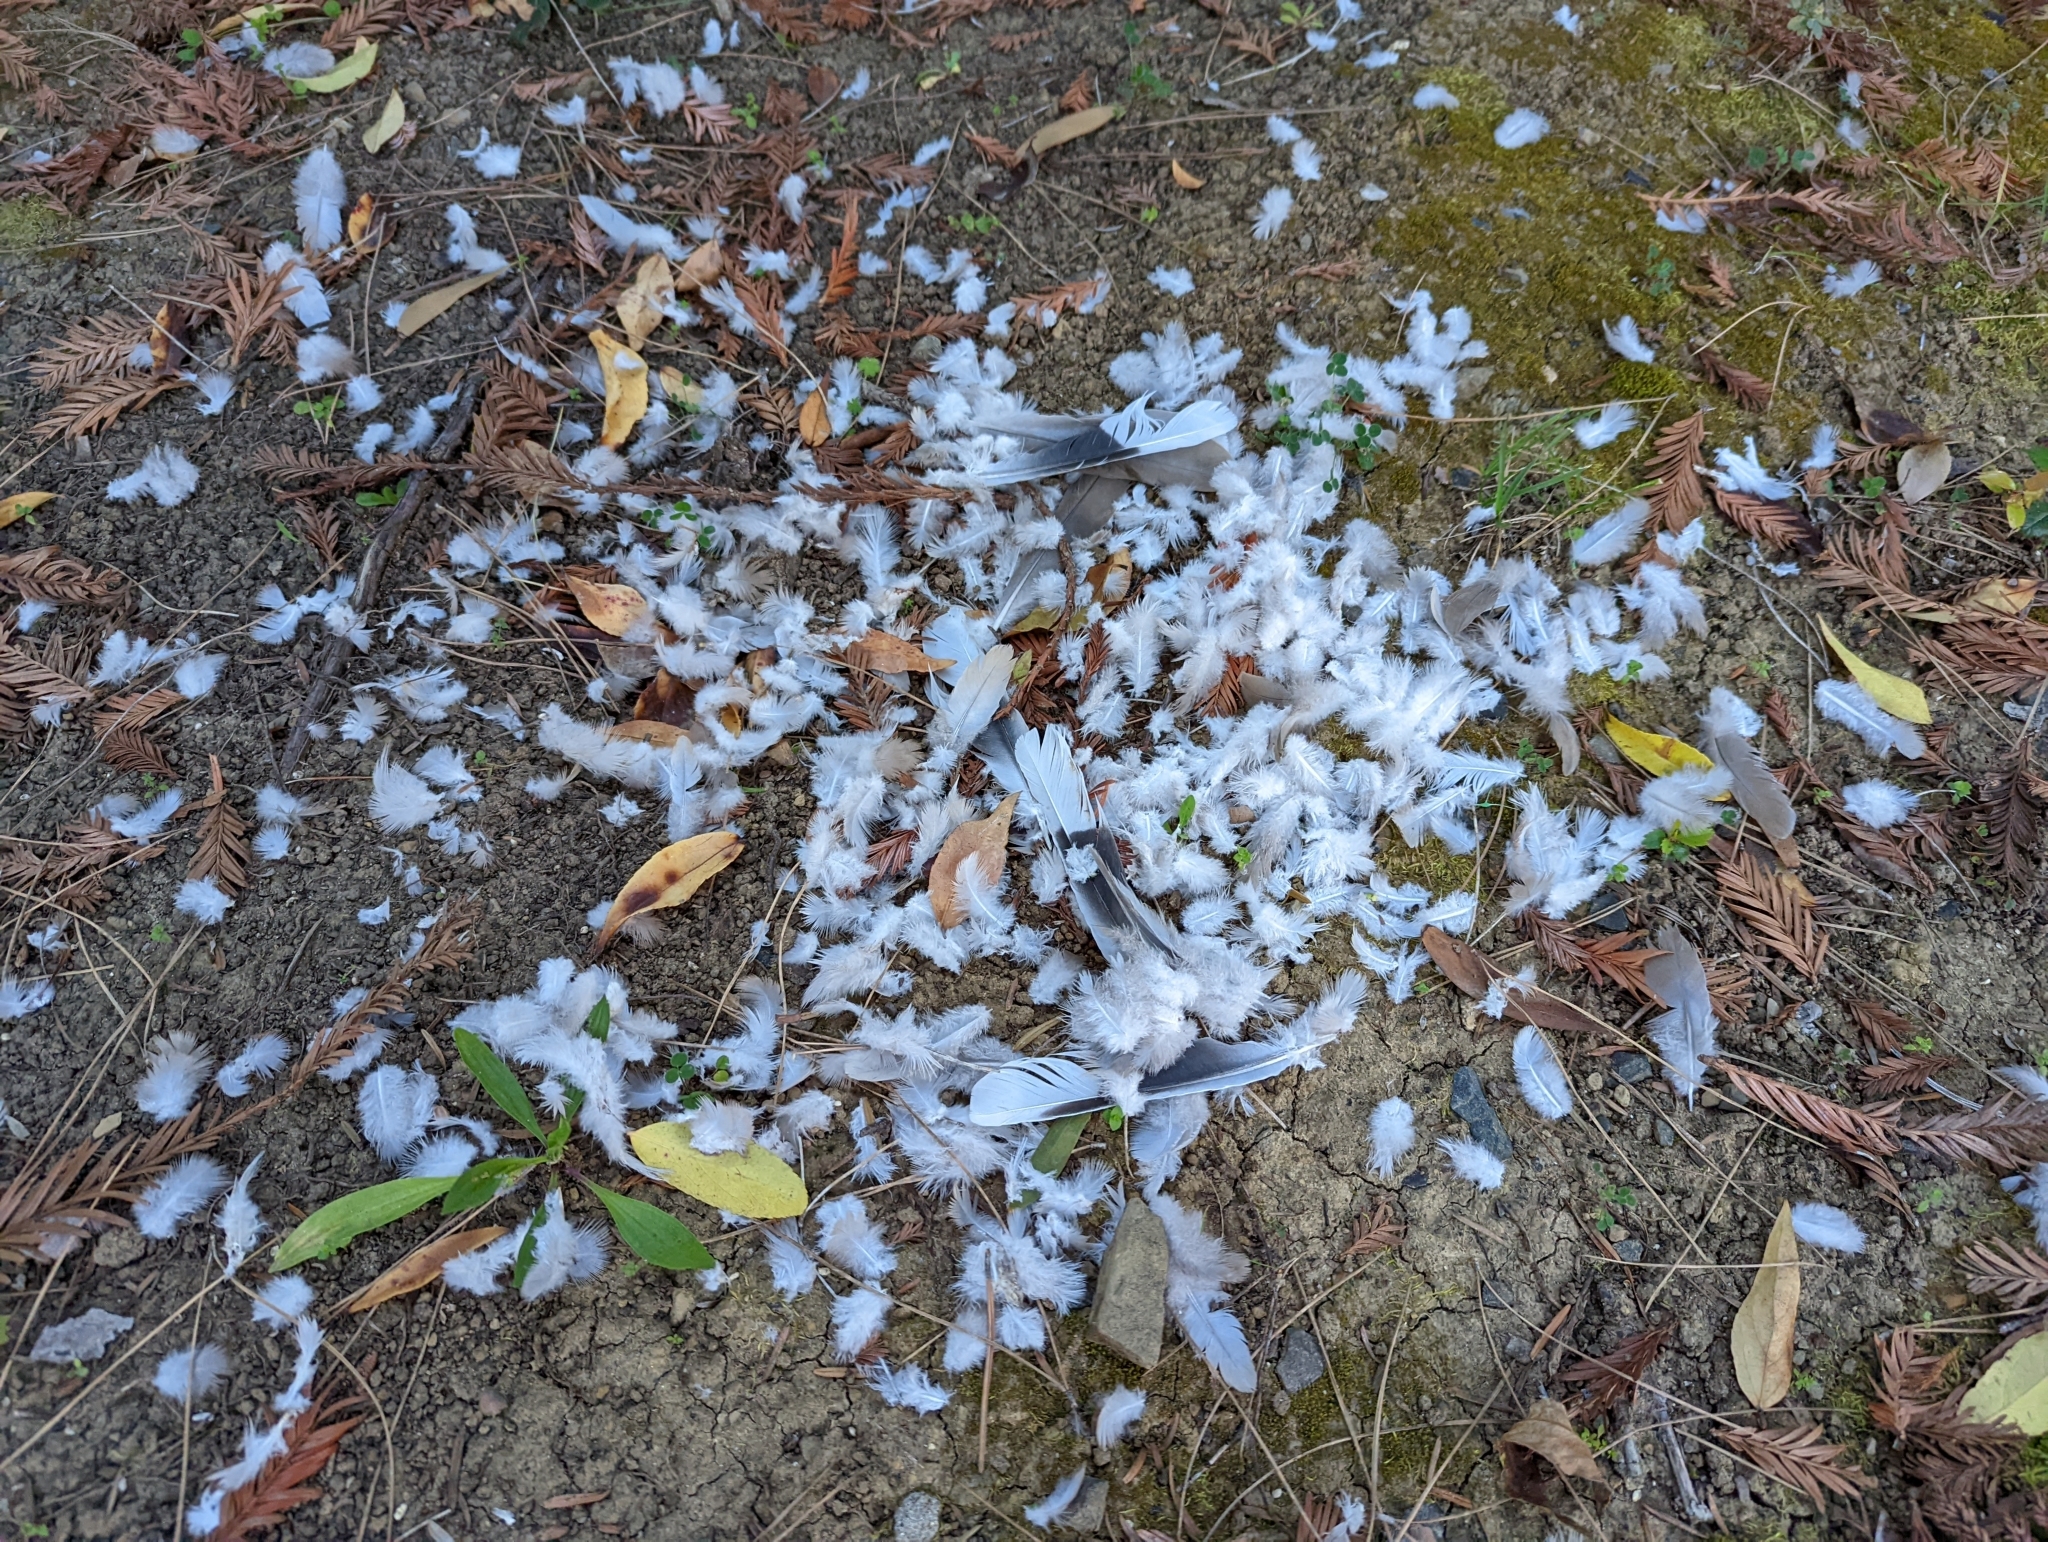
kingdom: Animalia
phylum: Chordata
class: Aves
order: Columbiformes
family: Columbidae
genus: Streptopelia
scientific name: Streptopelia decaocto
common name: Eurasian collared dove
